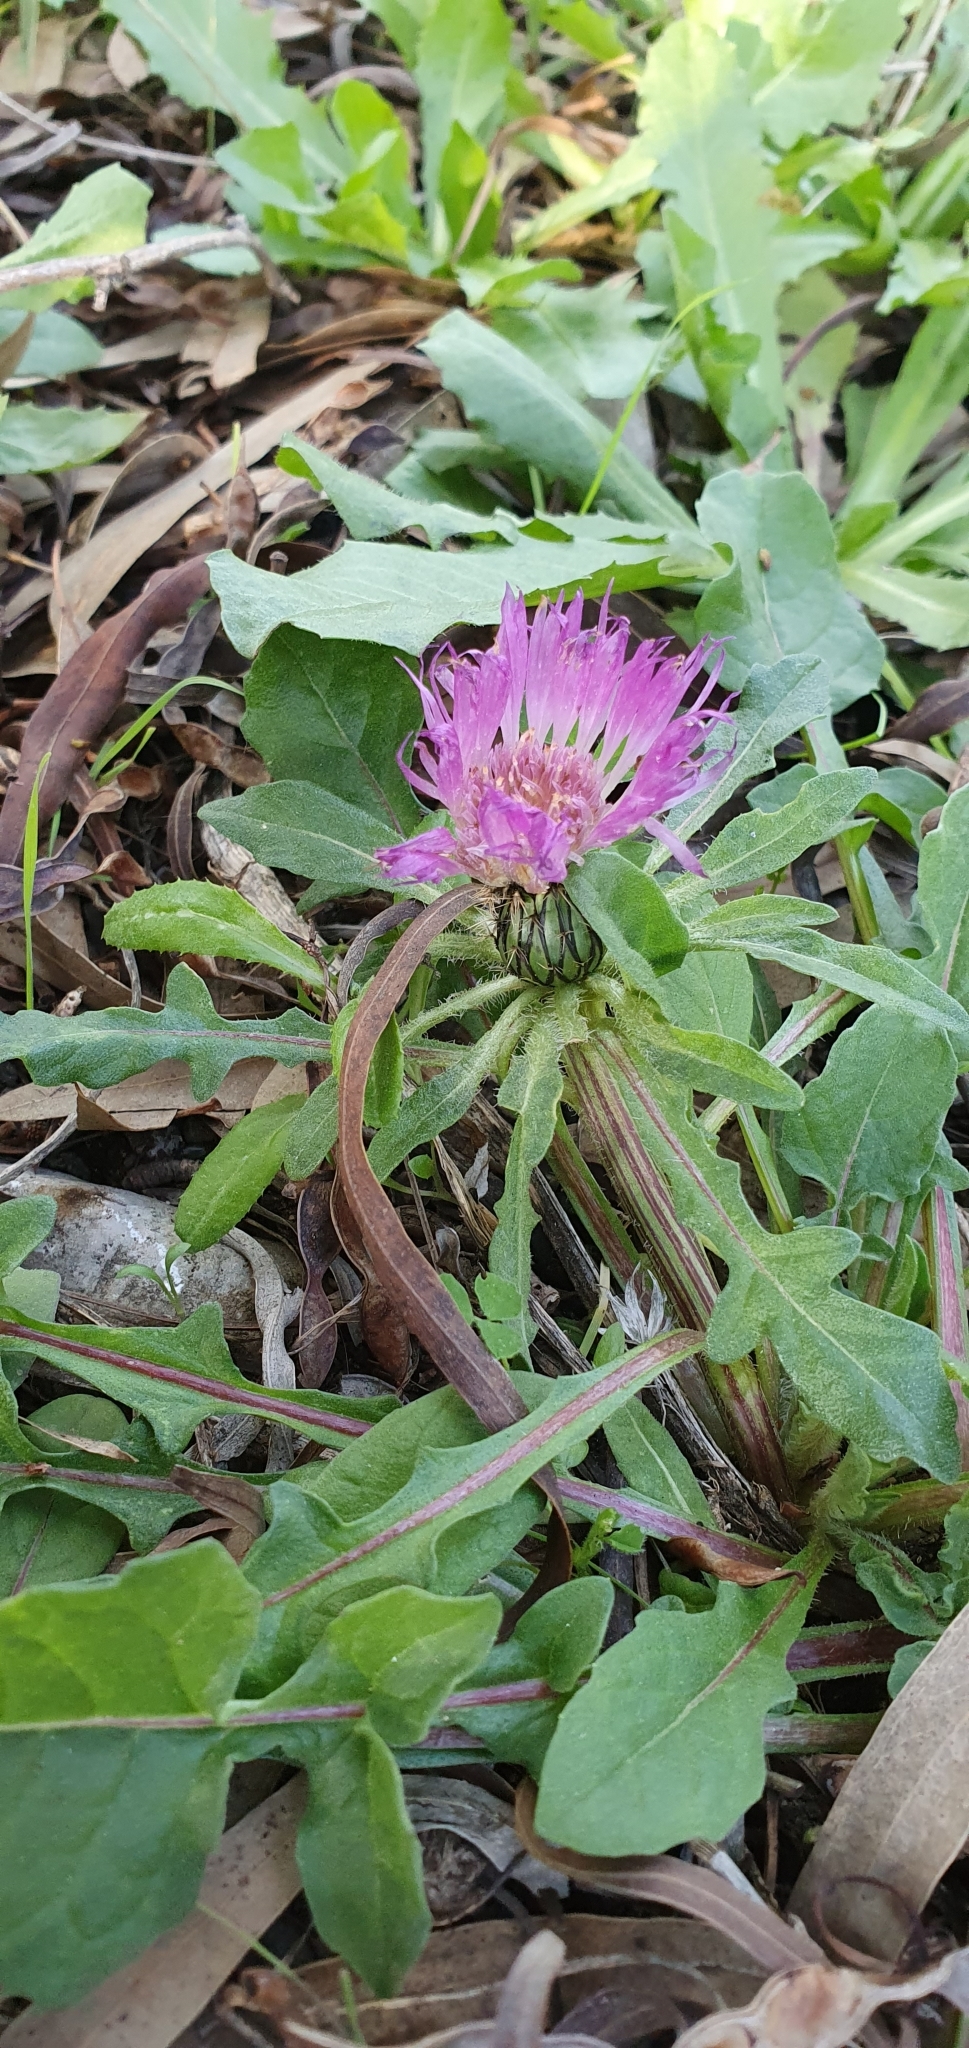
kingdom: Plantae
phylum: Tracheophyta
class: Magnoliopsida
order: Asterales
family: Asteraceae
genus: Centaurea
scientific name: Centaurea pullata
